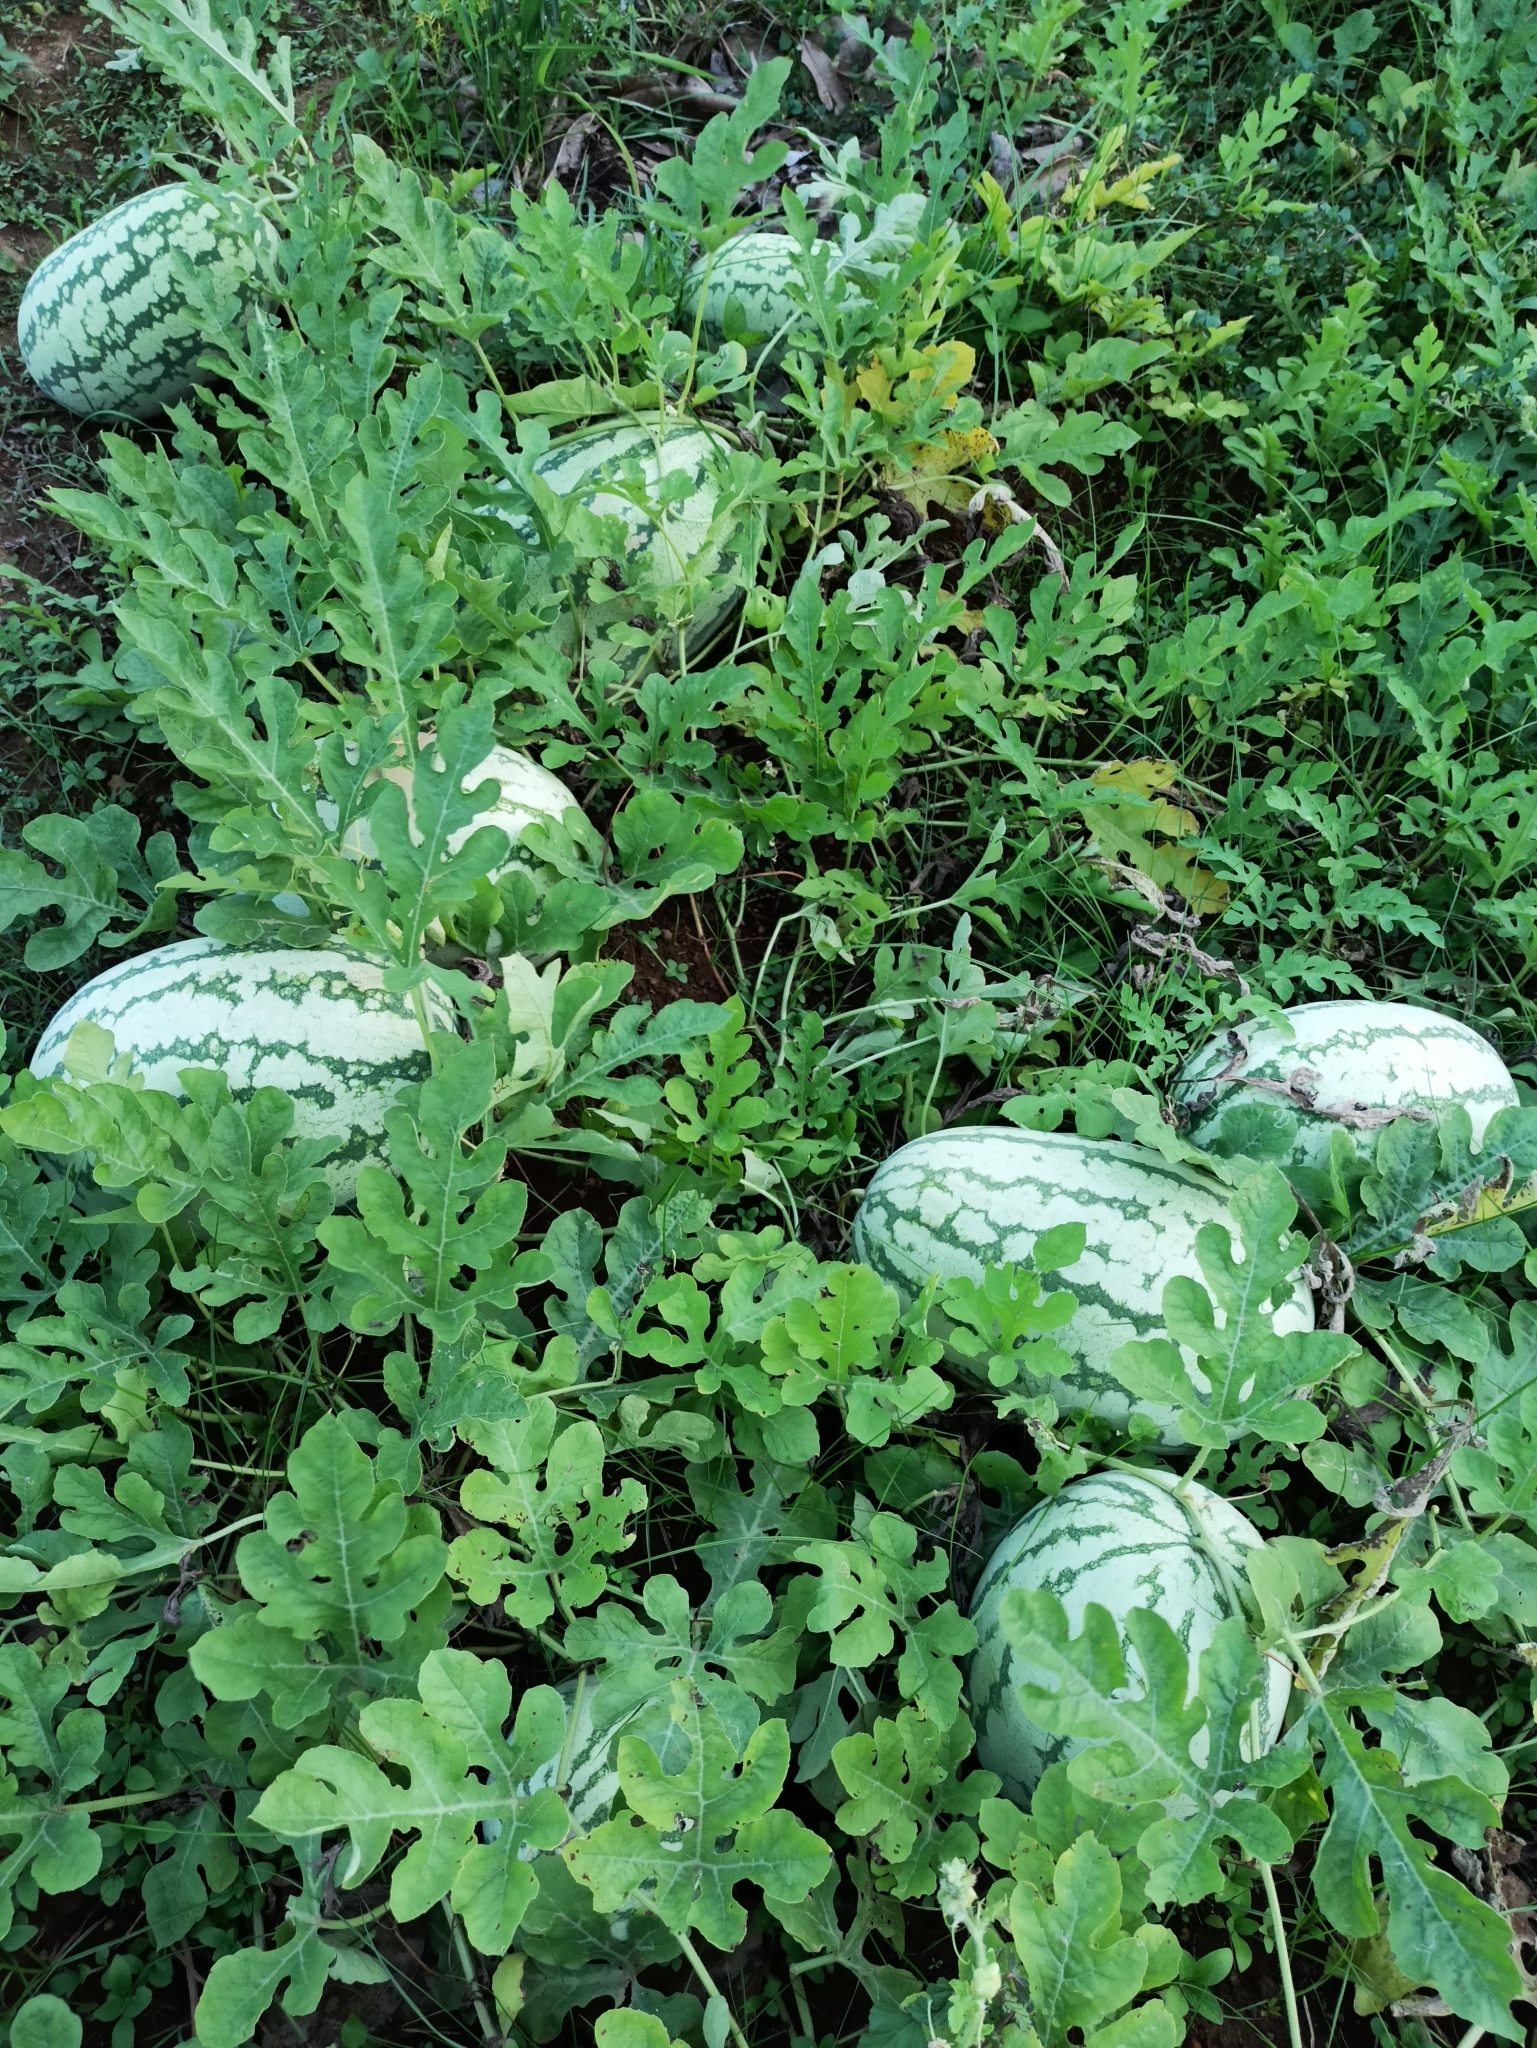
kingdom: Plantae
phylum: Tracheophyta
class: Magnoliopsida
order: Cucurbitales
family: Cucurbitaceae
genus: Citrullus
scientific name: Citrullus lanatus
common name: Watermelon
